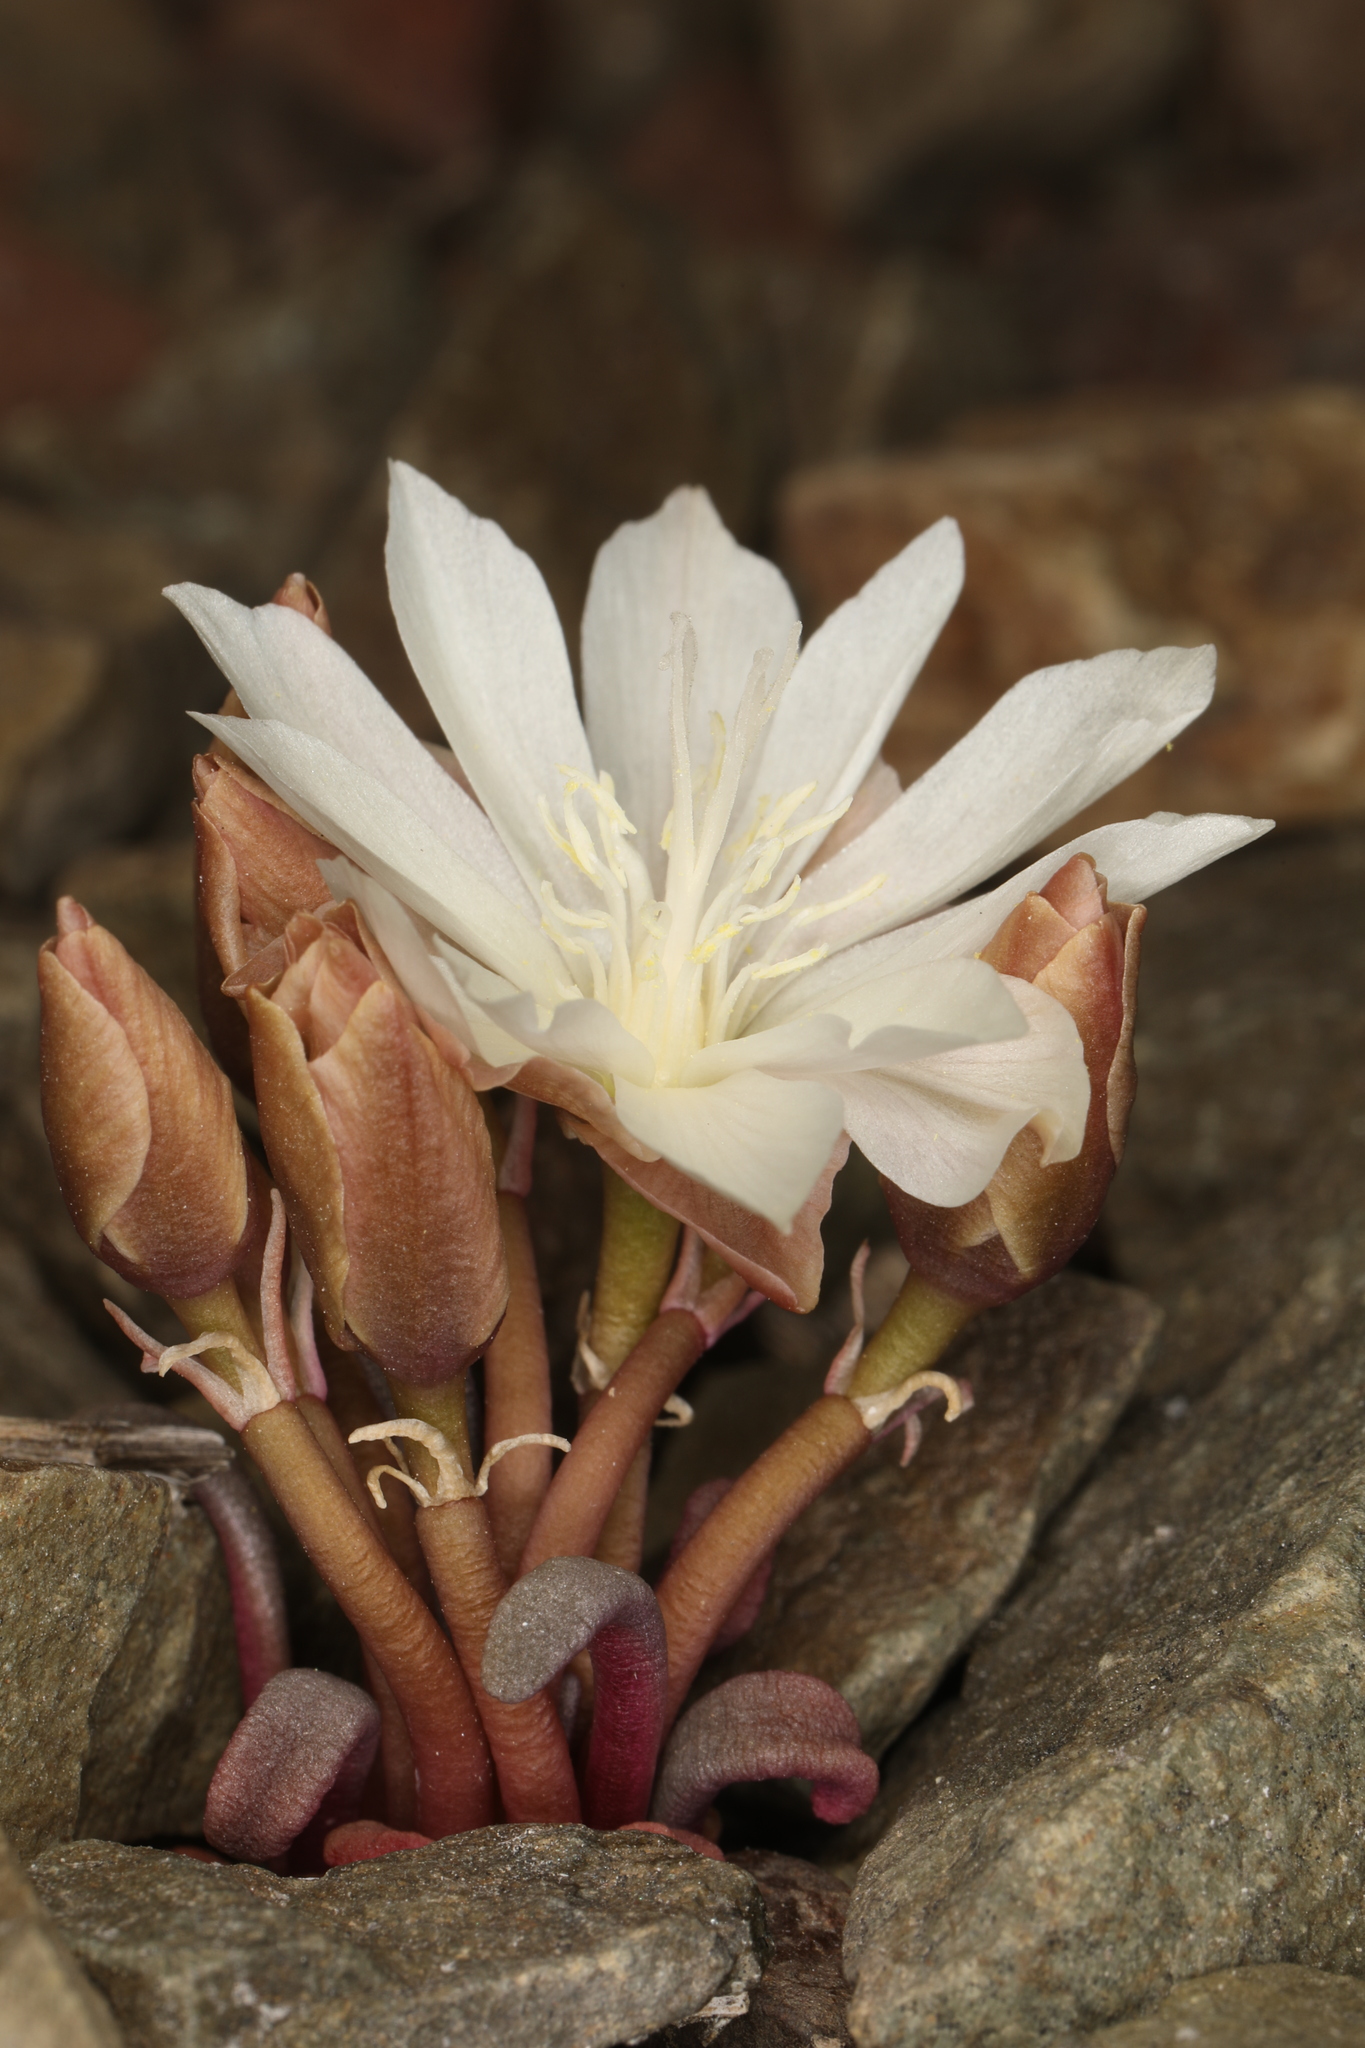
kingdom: Plantae
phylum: Tracheophyta
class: Magnoliopsida
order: Caryophyllales
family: Montiaceae
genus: Lewisia
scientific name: Lewisia rediviva
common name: Bitter-root
